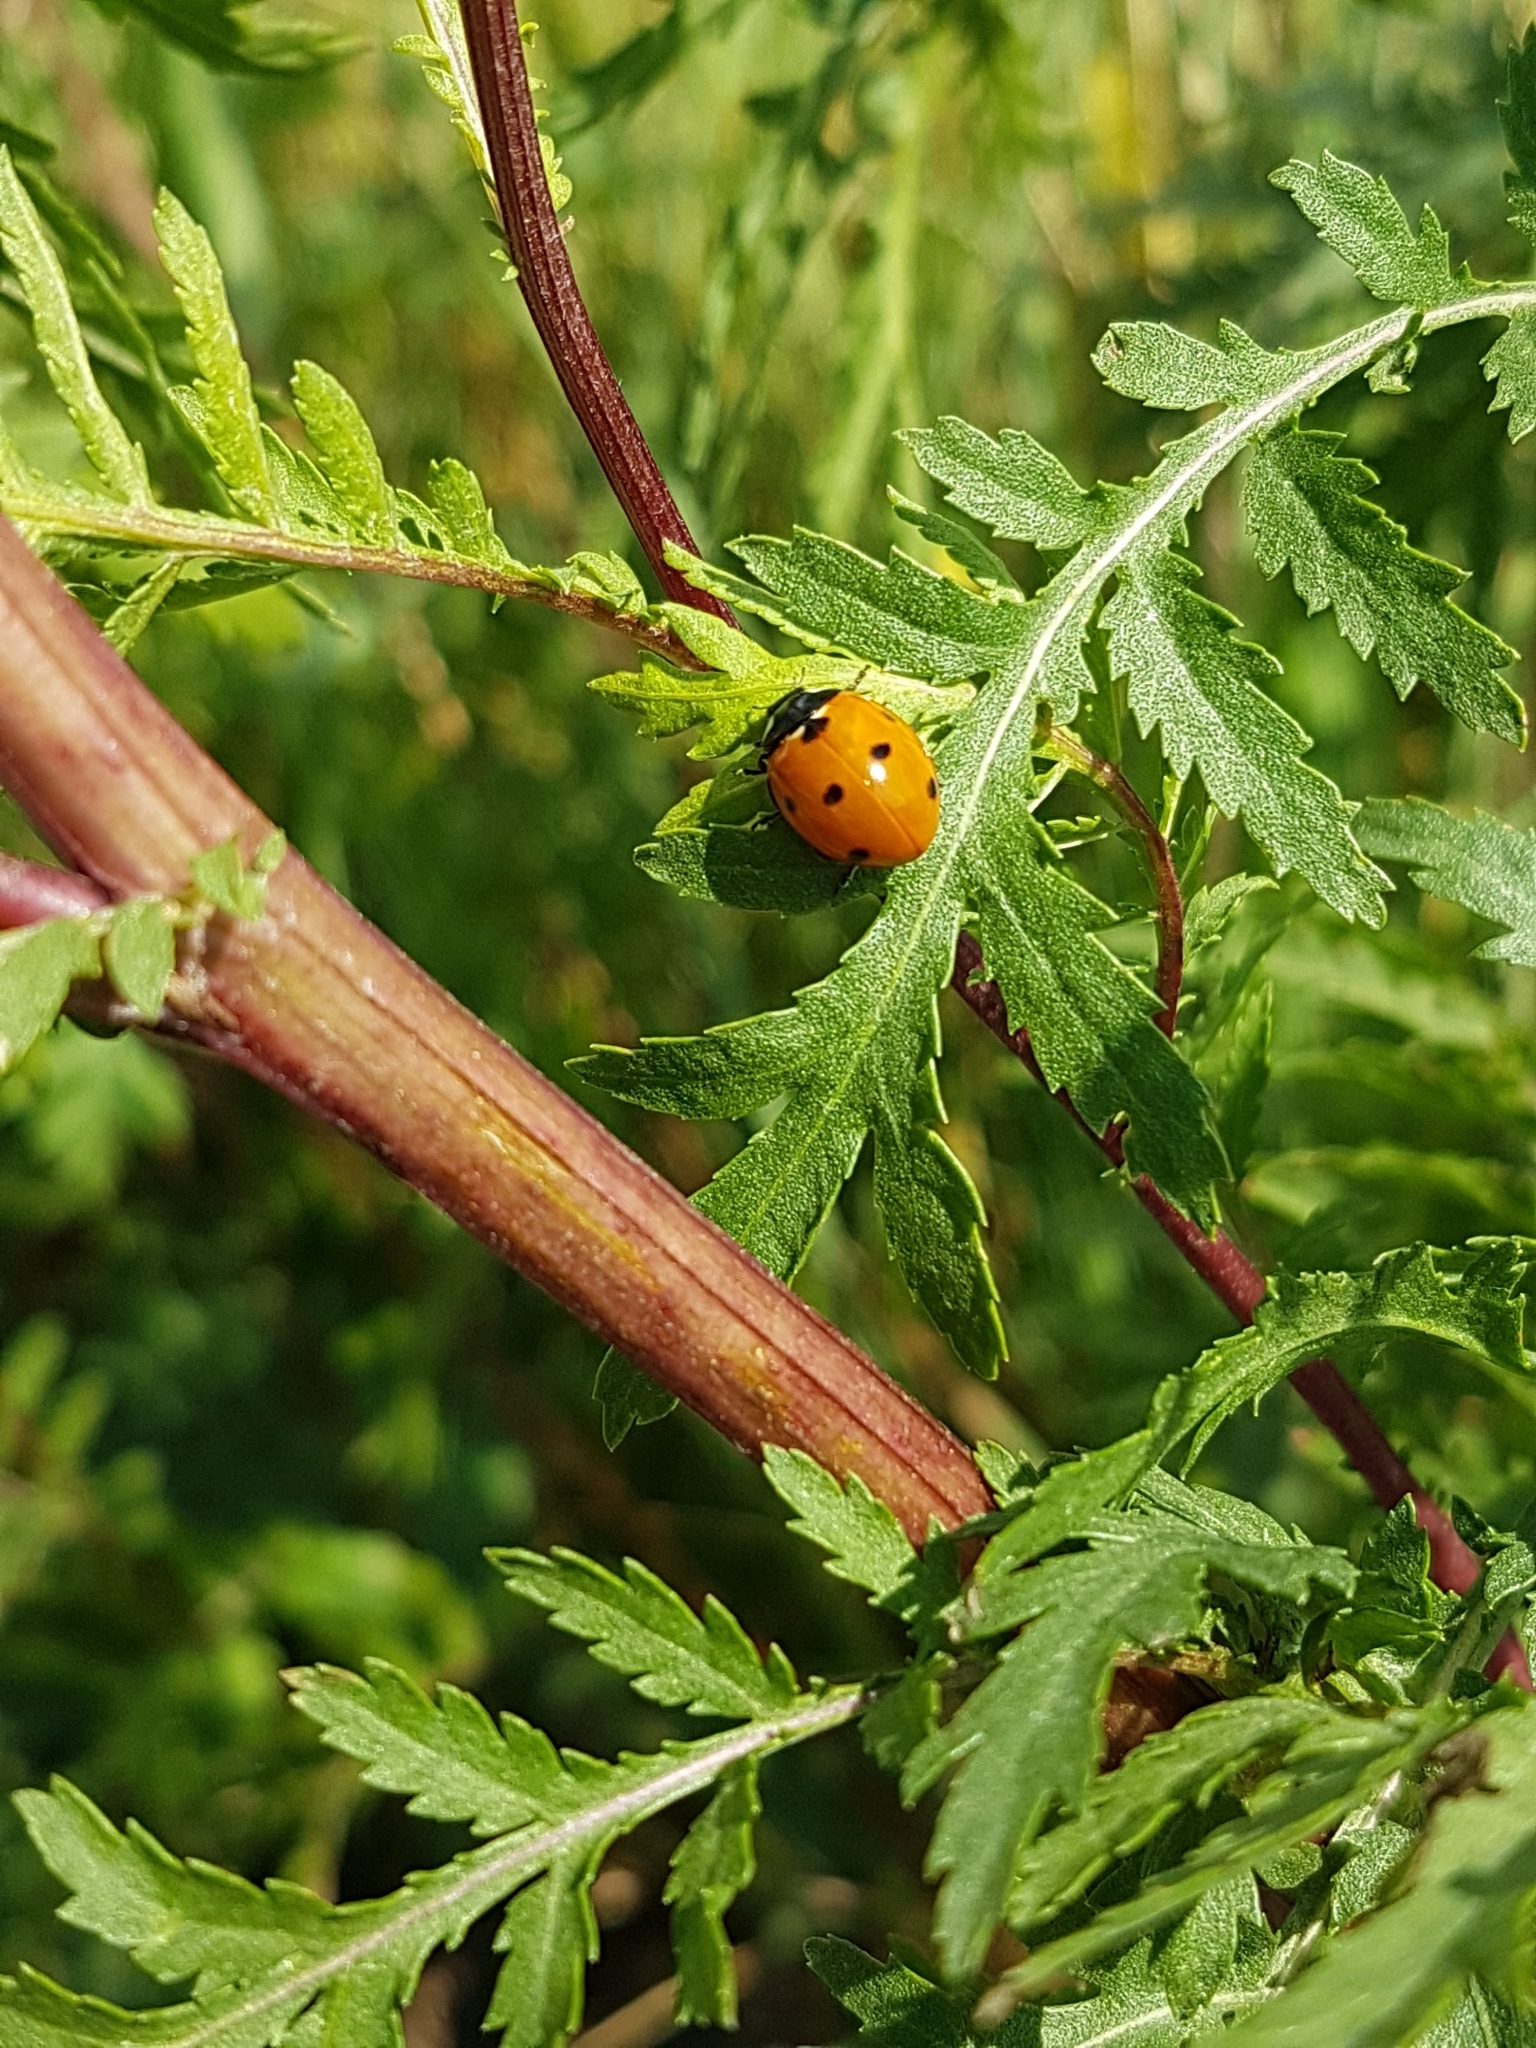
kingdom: Animalia
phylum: Arthropoda
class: Insecta
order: Coleoptera
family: Coccinellidae
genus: Coccinella
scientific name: Coccinella septempunctata
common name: Sevenspotted lady beetle
